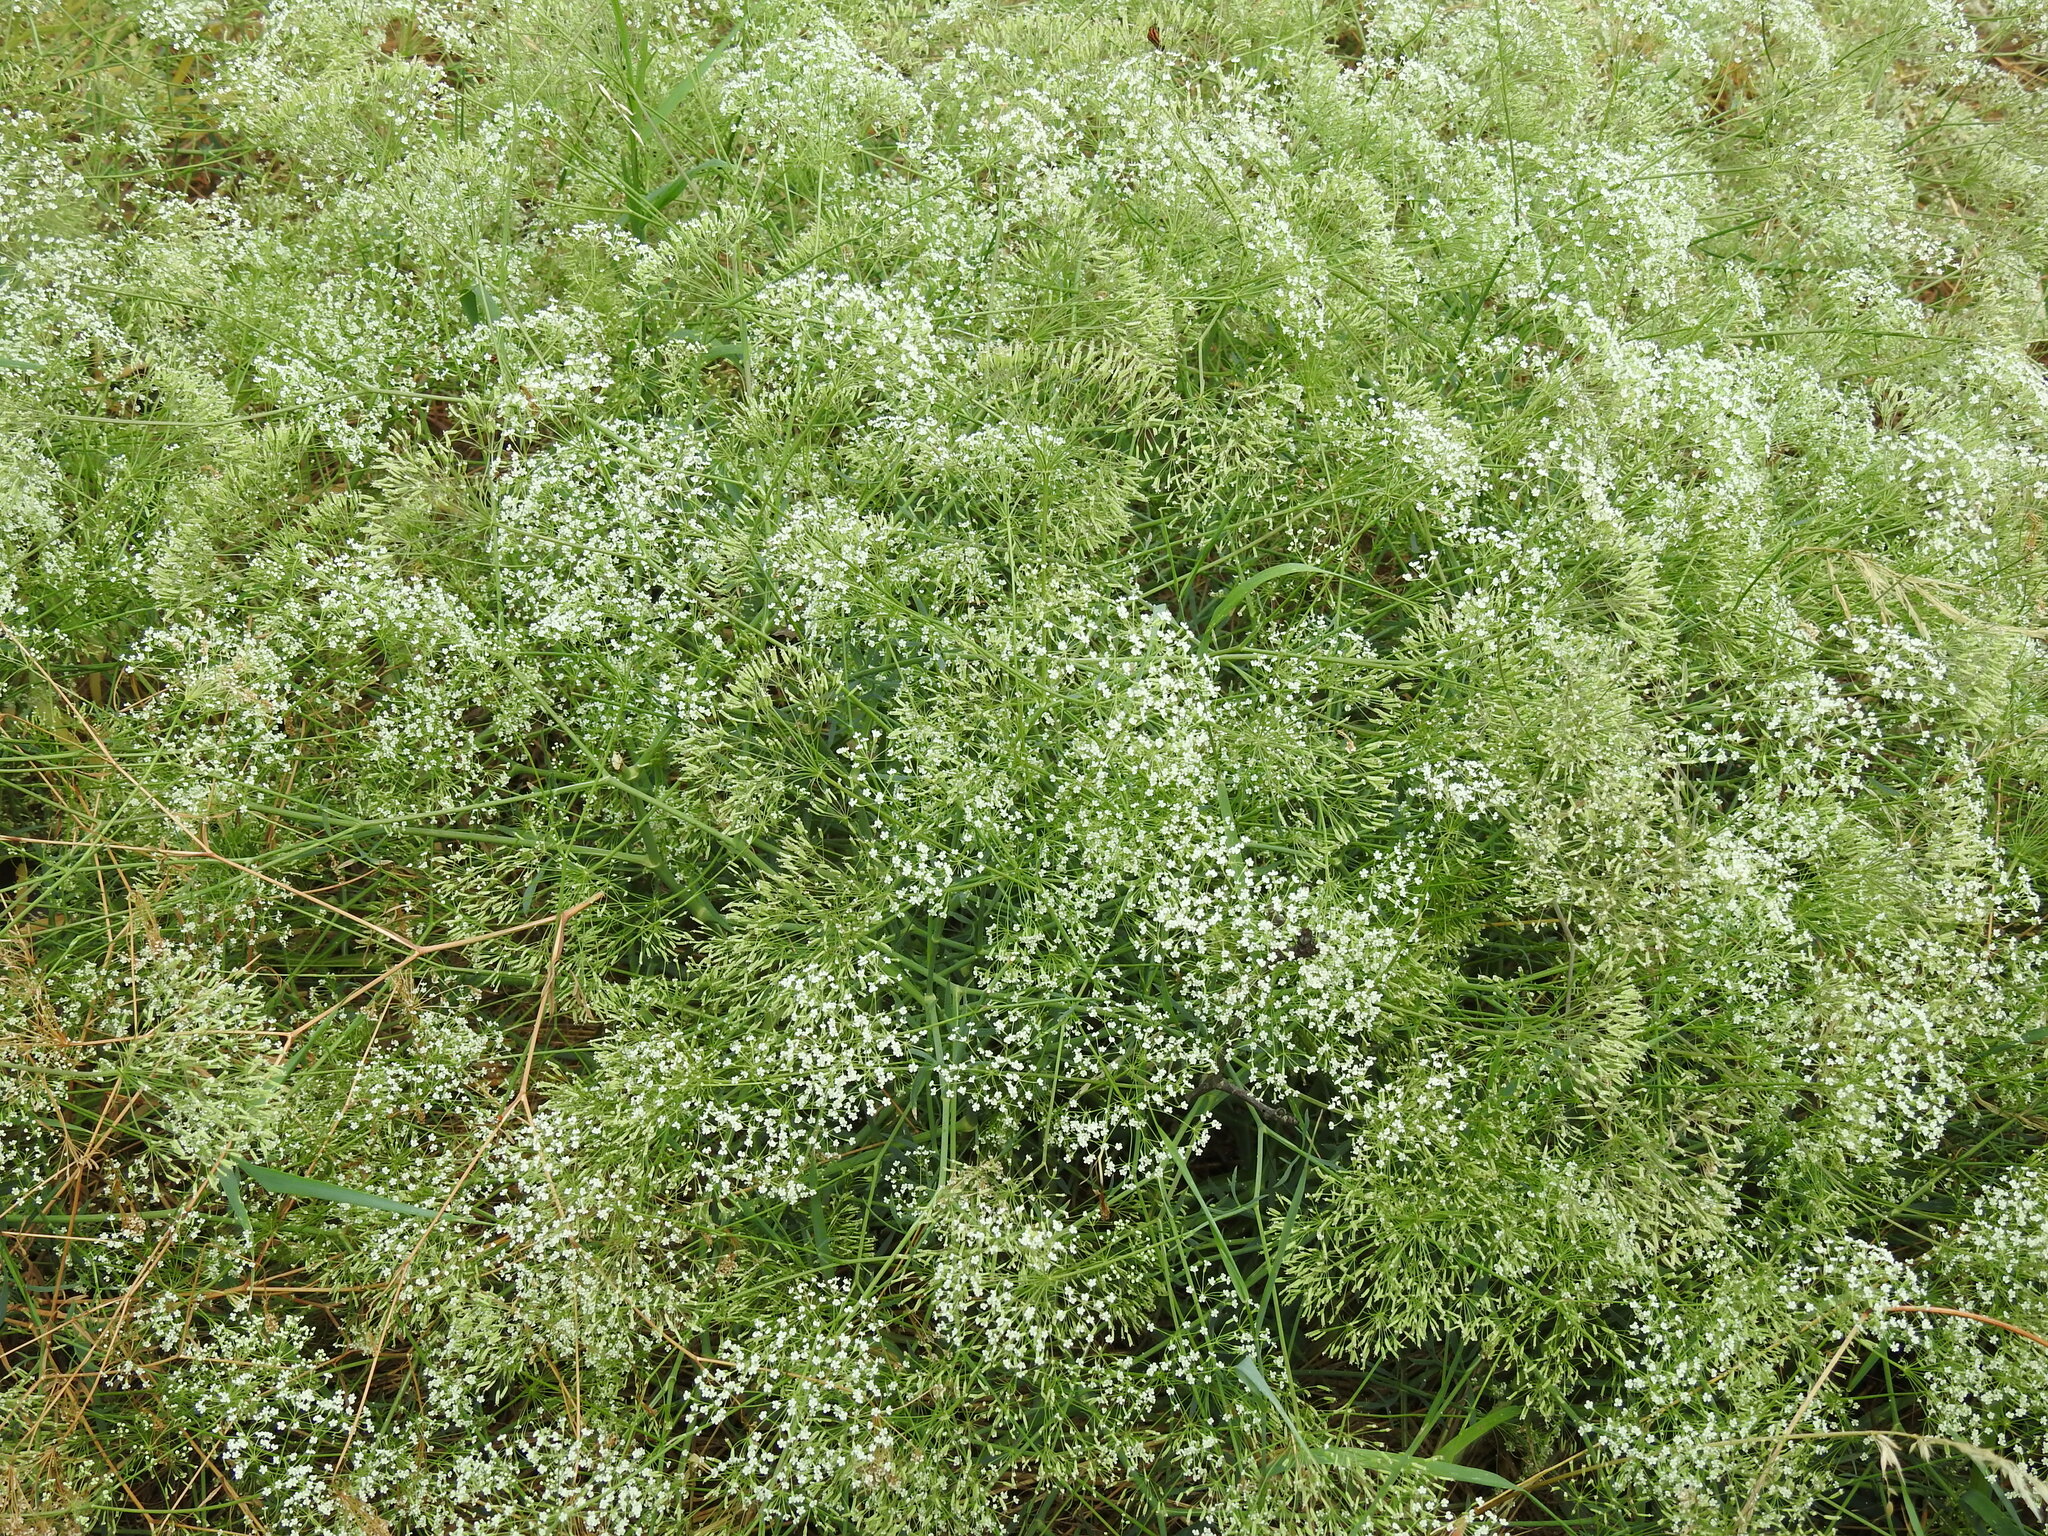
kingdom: Plantae
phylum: Tracheophyta
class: Magnoliopsida
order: Apiales
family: Apiaceae
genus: Falcaria
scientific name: Falcaria vulgaris
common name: Longleaf
